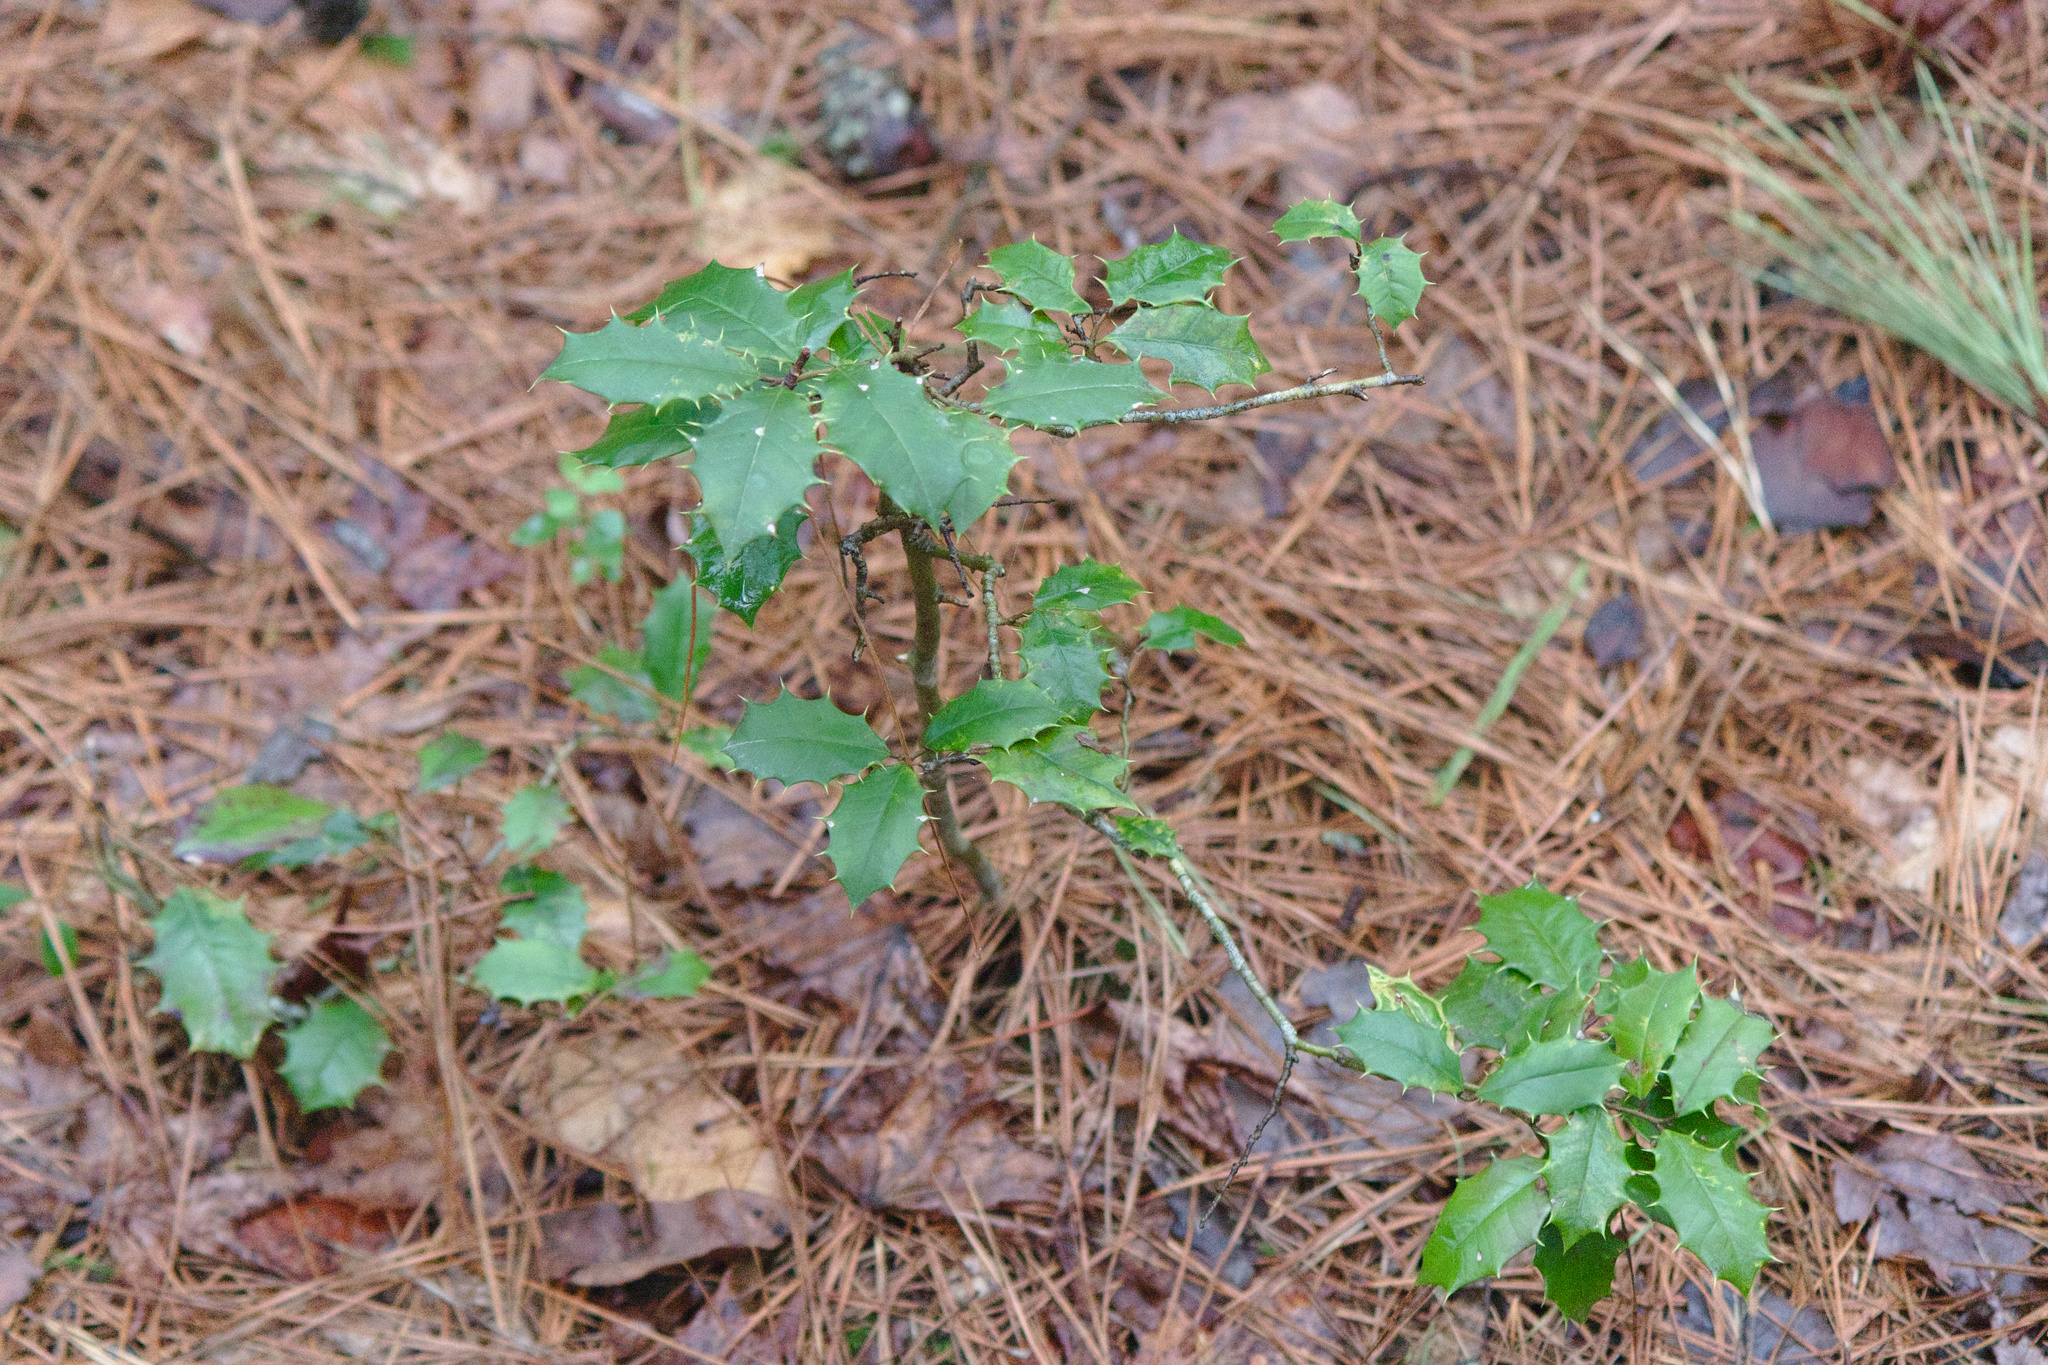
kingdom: Plantae
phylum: Tracheophyta
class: Magnoliopsida
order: Aquifoliales
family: Aquifoliaceae
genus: Ilex
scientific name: Ilex opaca
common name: American holly
